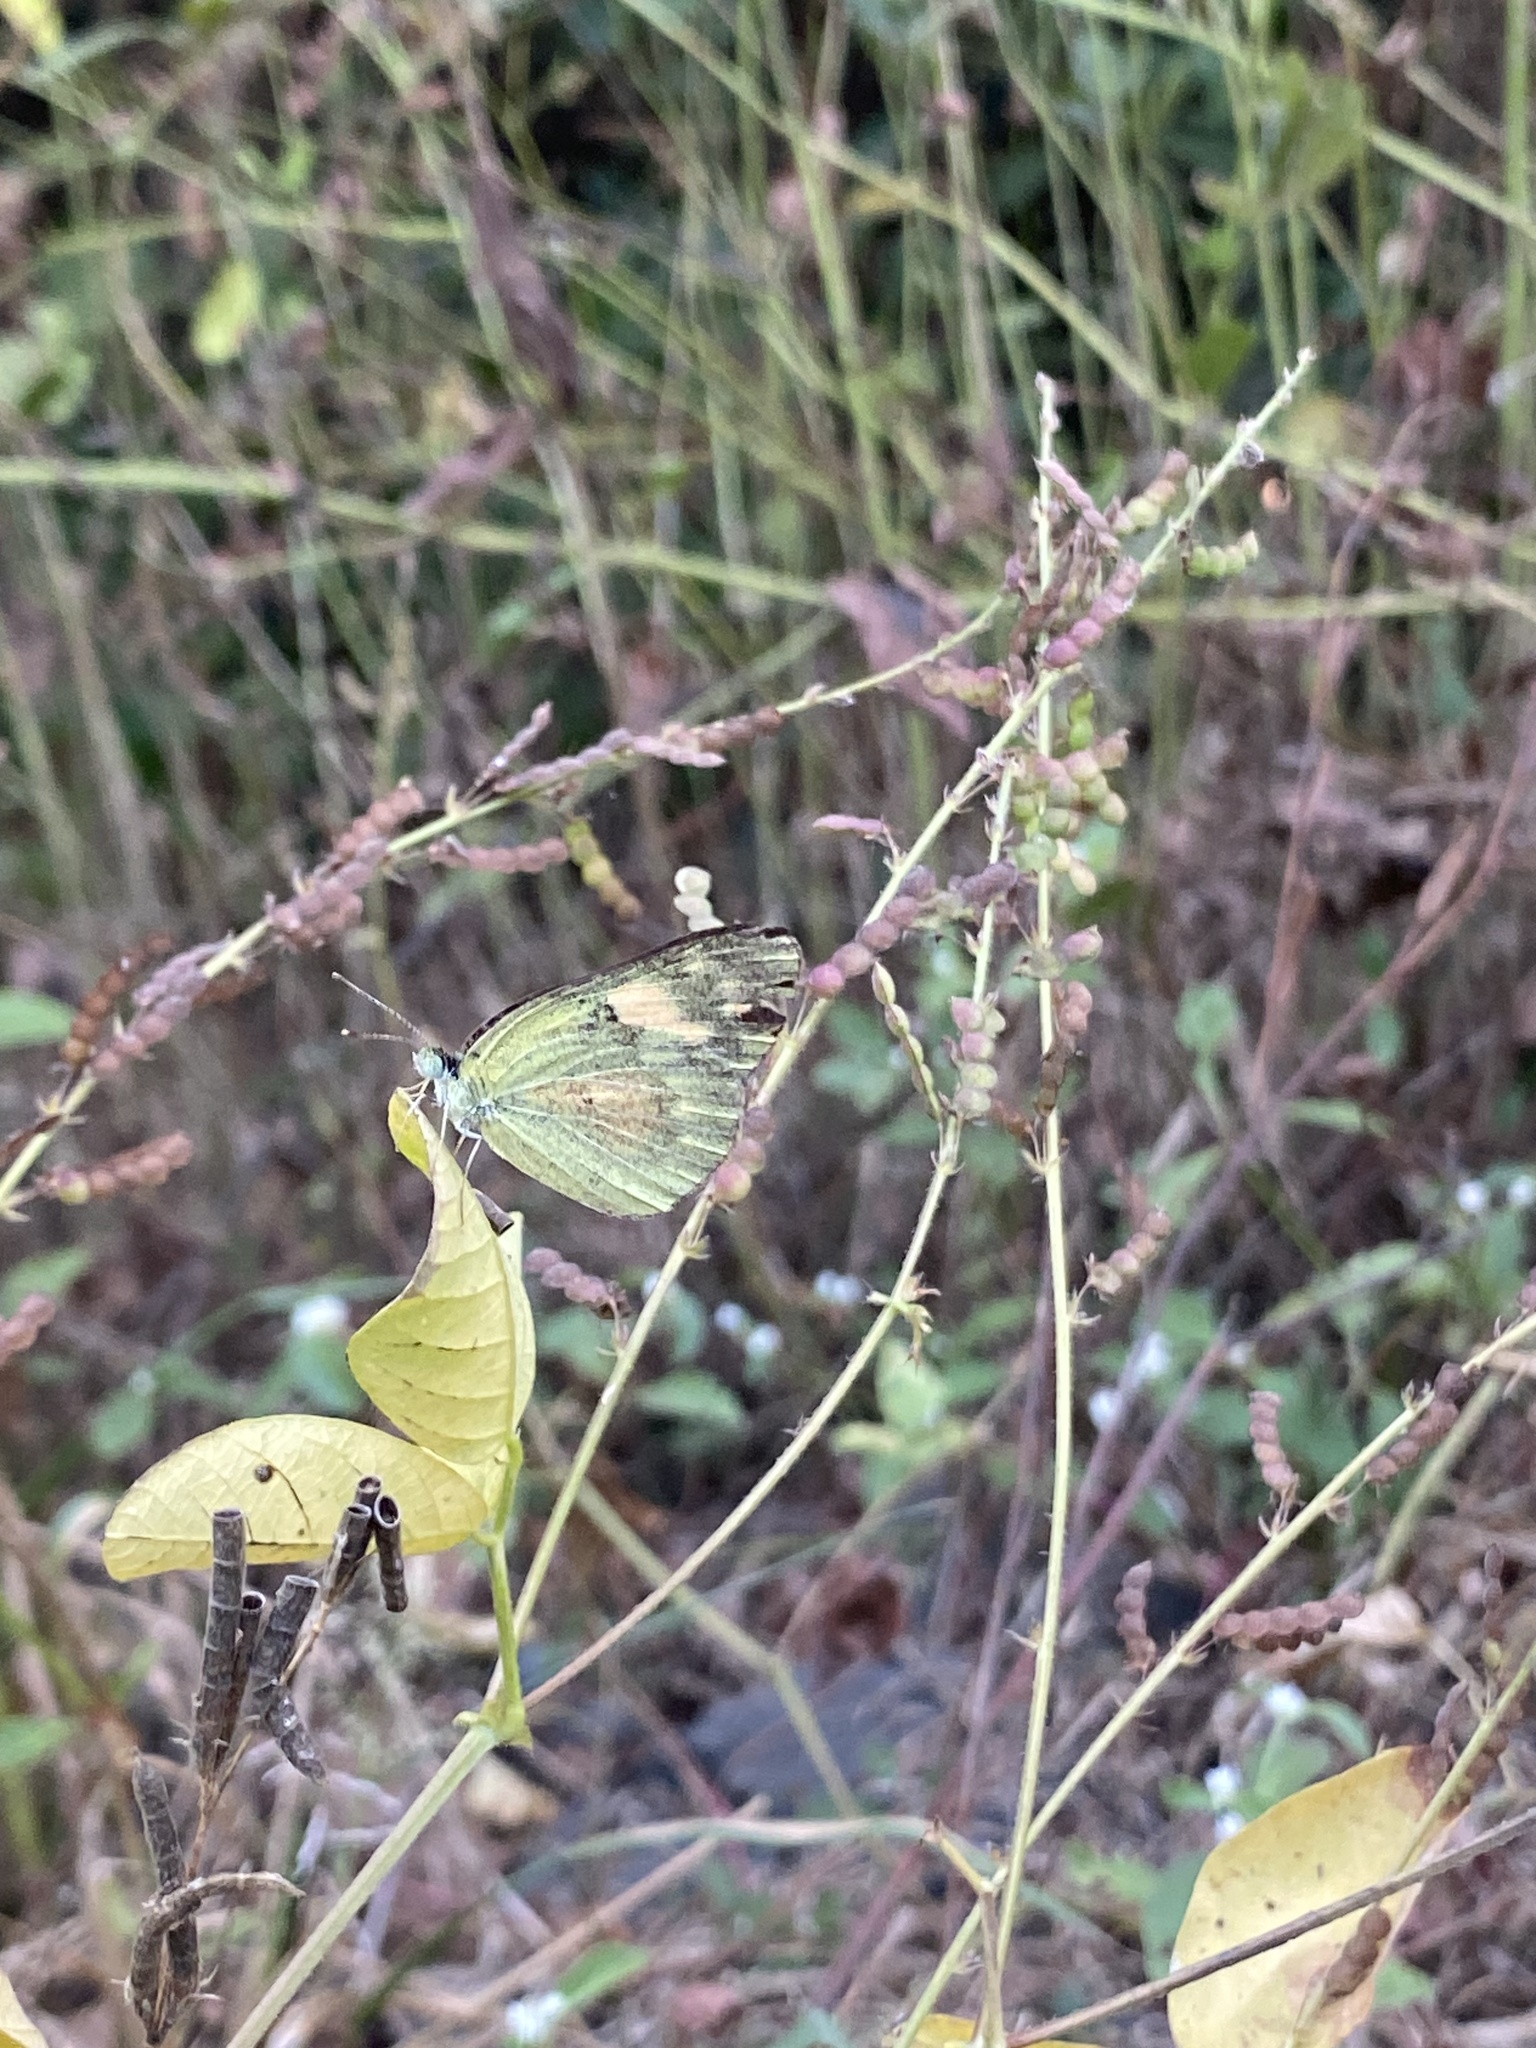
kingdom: Animalia
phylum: Arthropoda
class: Insecta
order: Lepidoptera
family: Pieridae
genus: Colotis
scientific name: Colotis amata
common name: Small salmon arab
